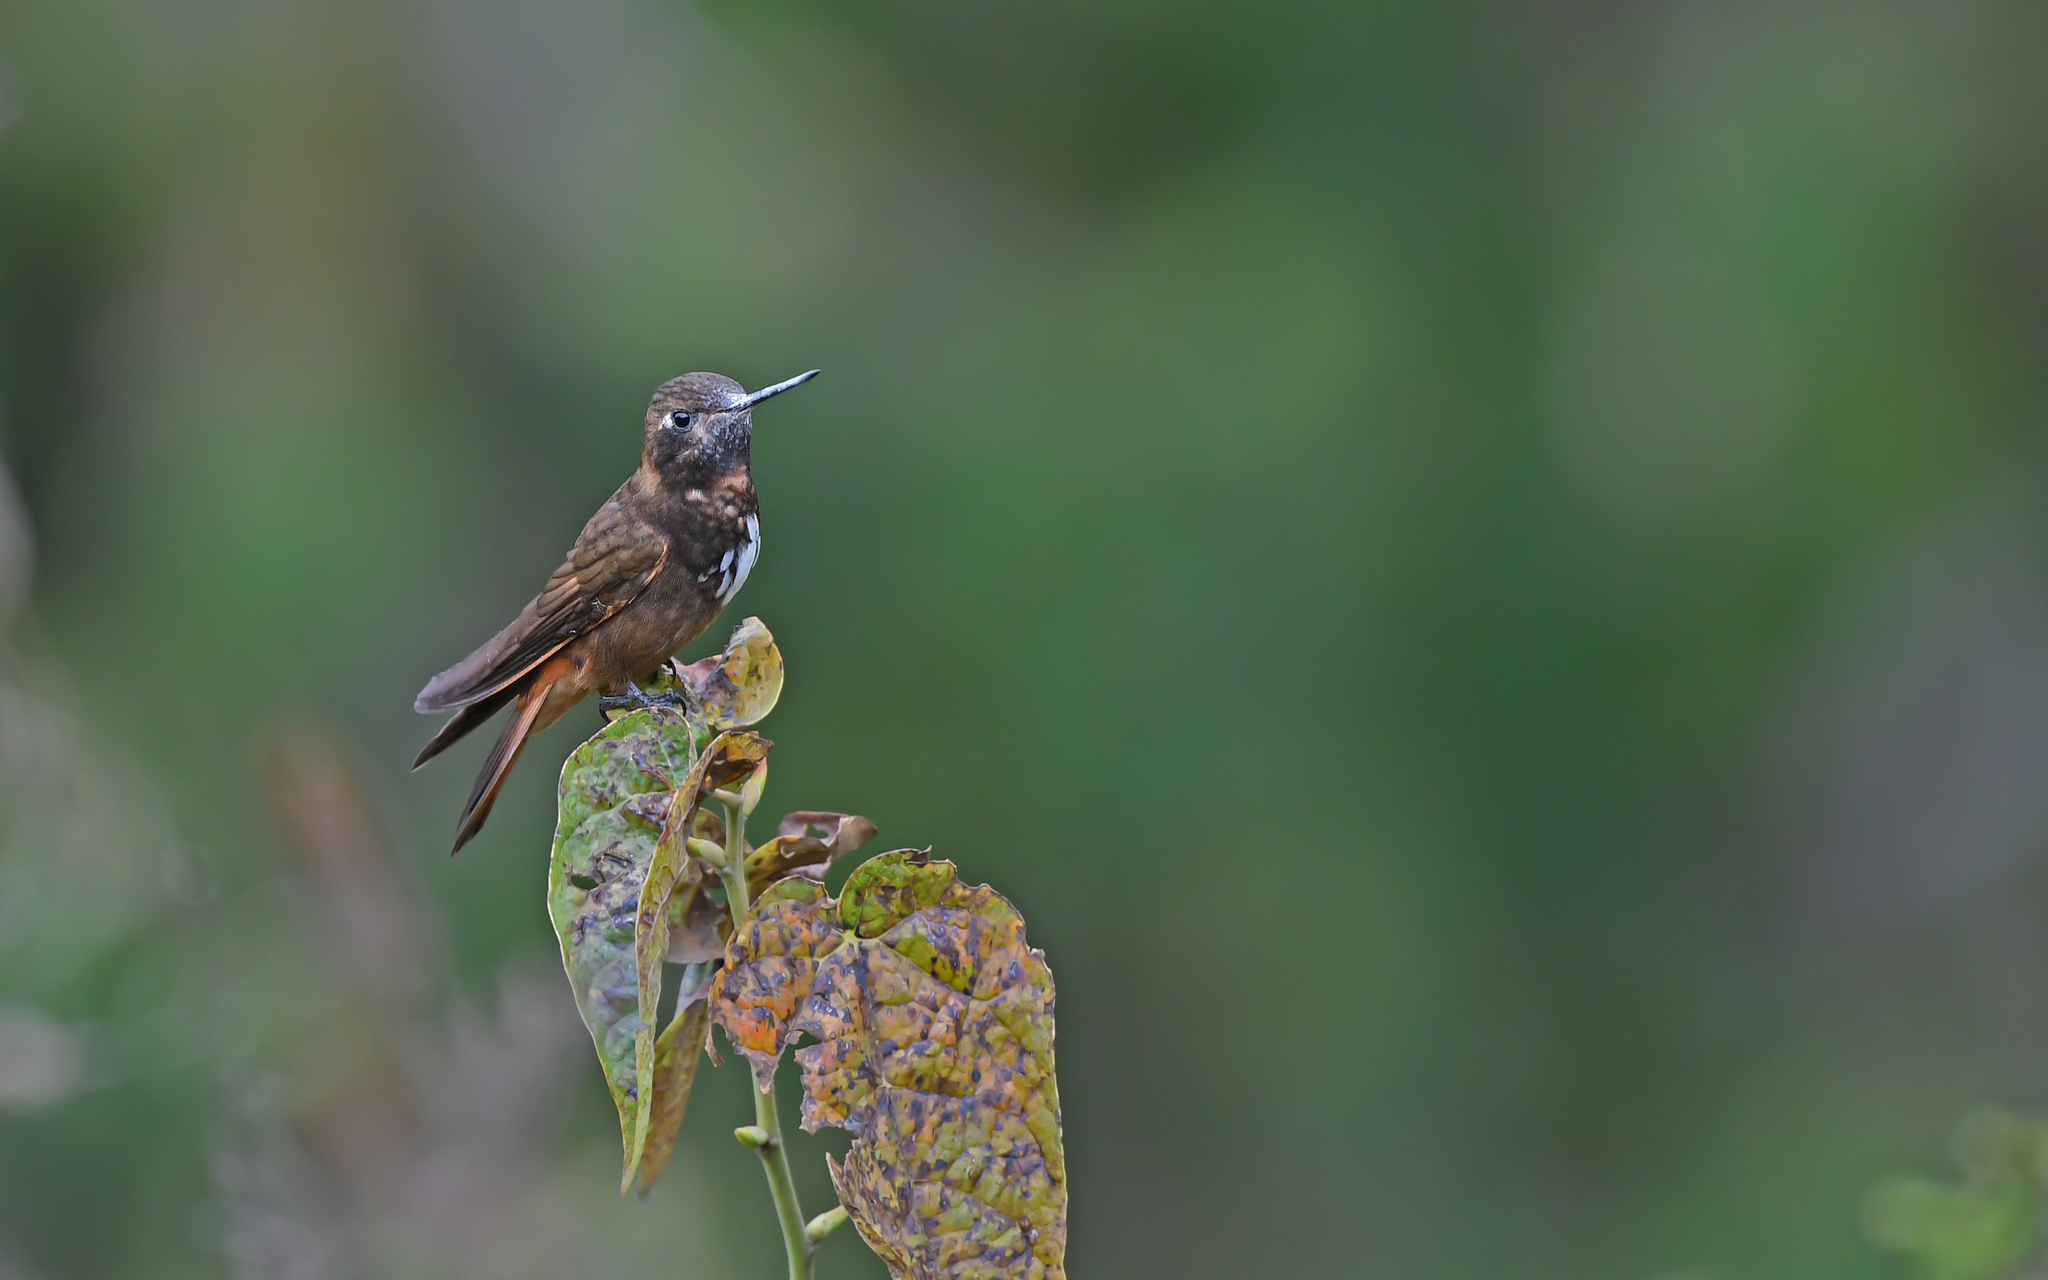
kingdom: Animalia
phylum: Chordata
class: Aves
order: Apodiformes
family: Trochilidae
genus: Aglaeactis
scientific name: Aglaeactis castelnaudii
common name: White-tufted sunbeam
